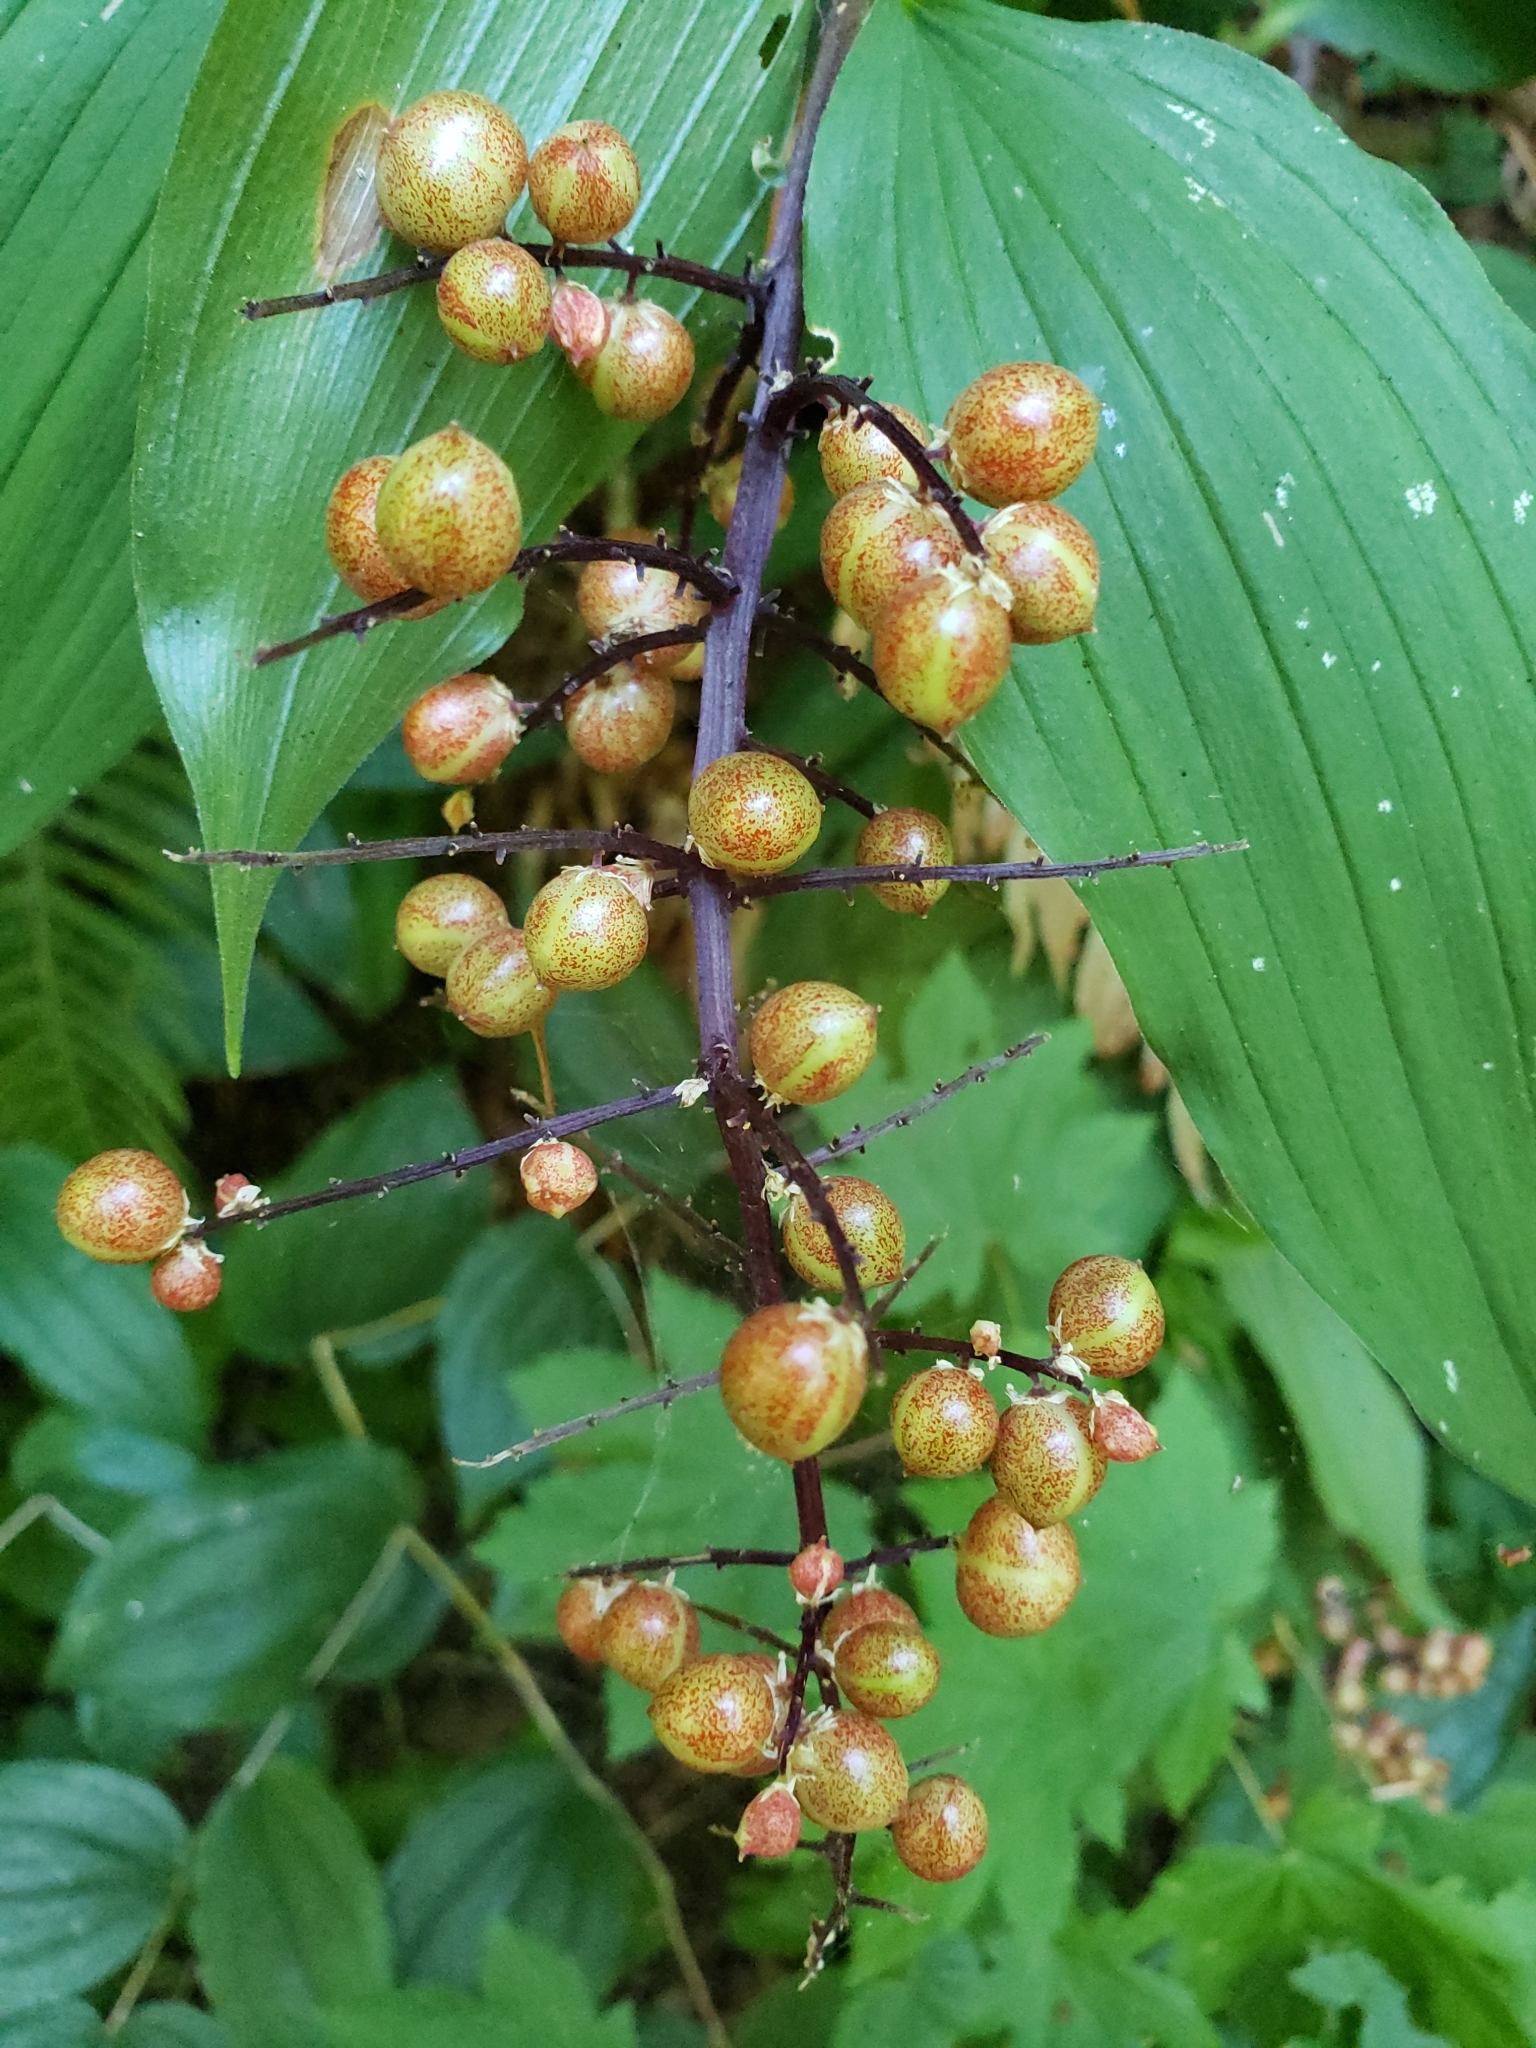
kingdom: Plantae
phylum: Tracheophyta
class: Liliopsida
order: Asparagales
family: Asparagaceae
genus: Maianthemum
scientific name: Maianthemum racemosum
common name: False spikenard
